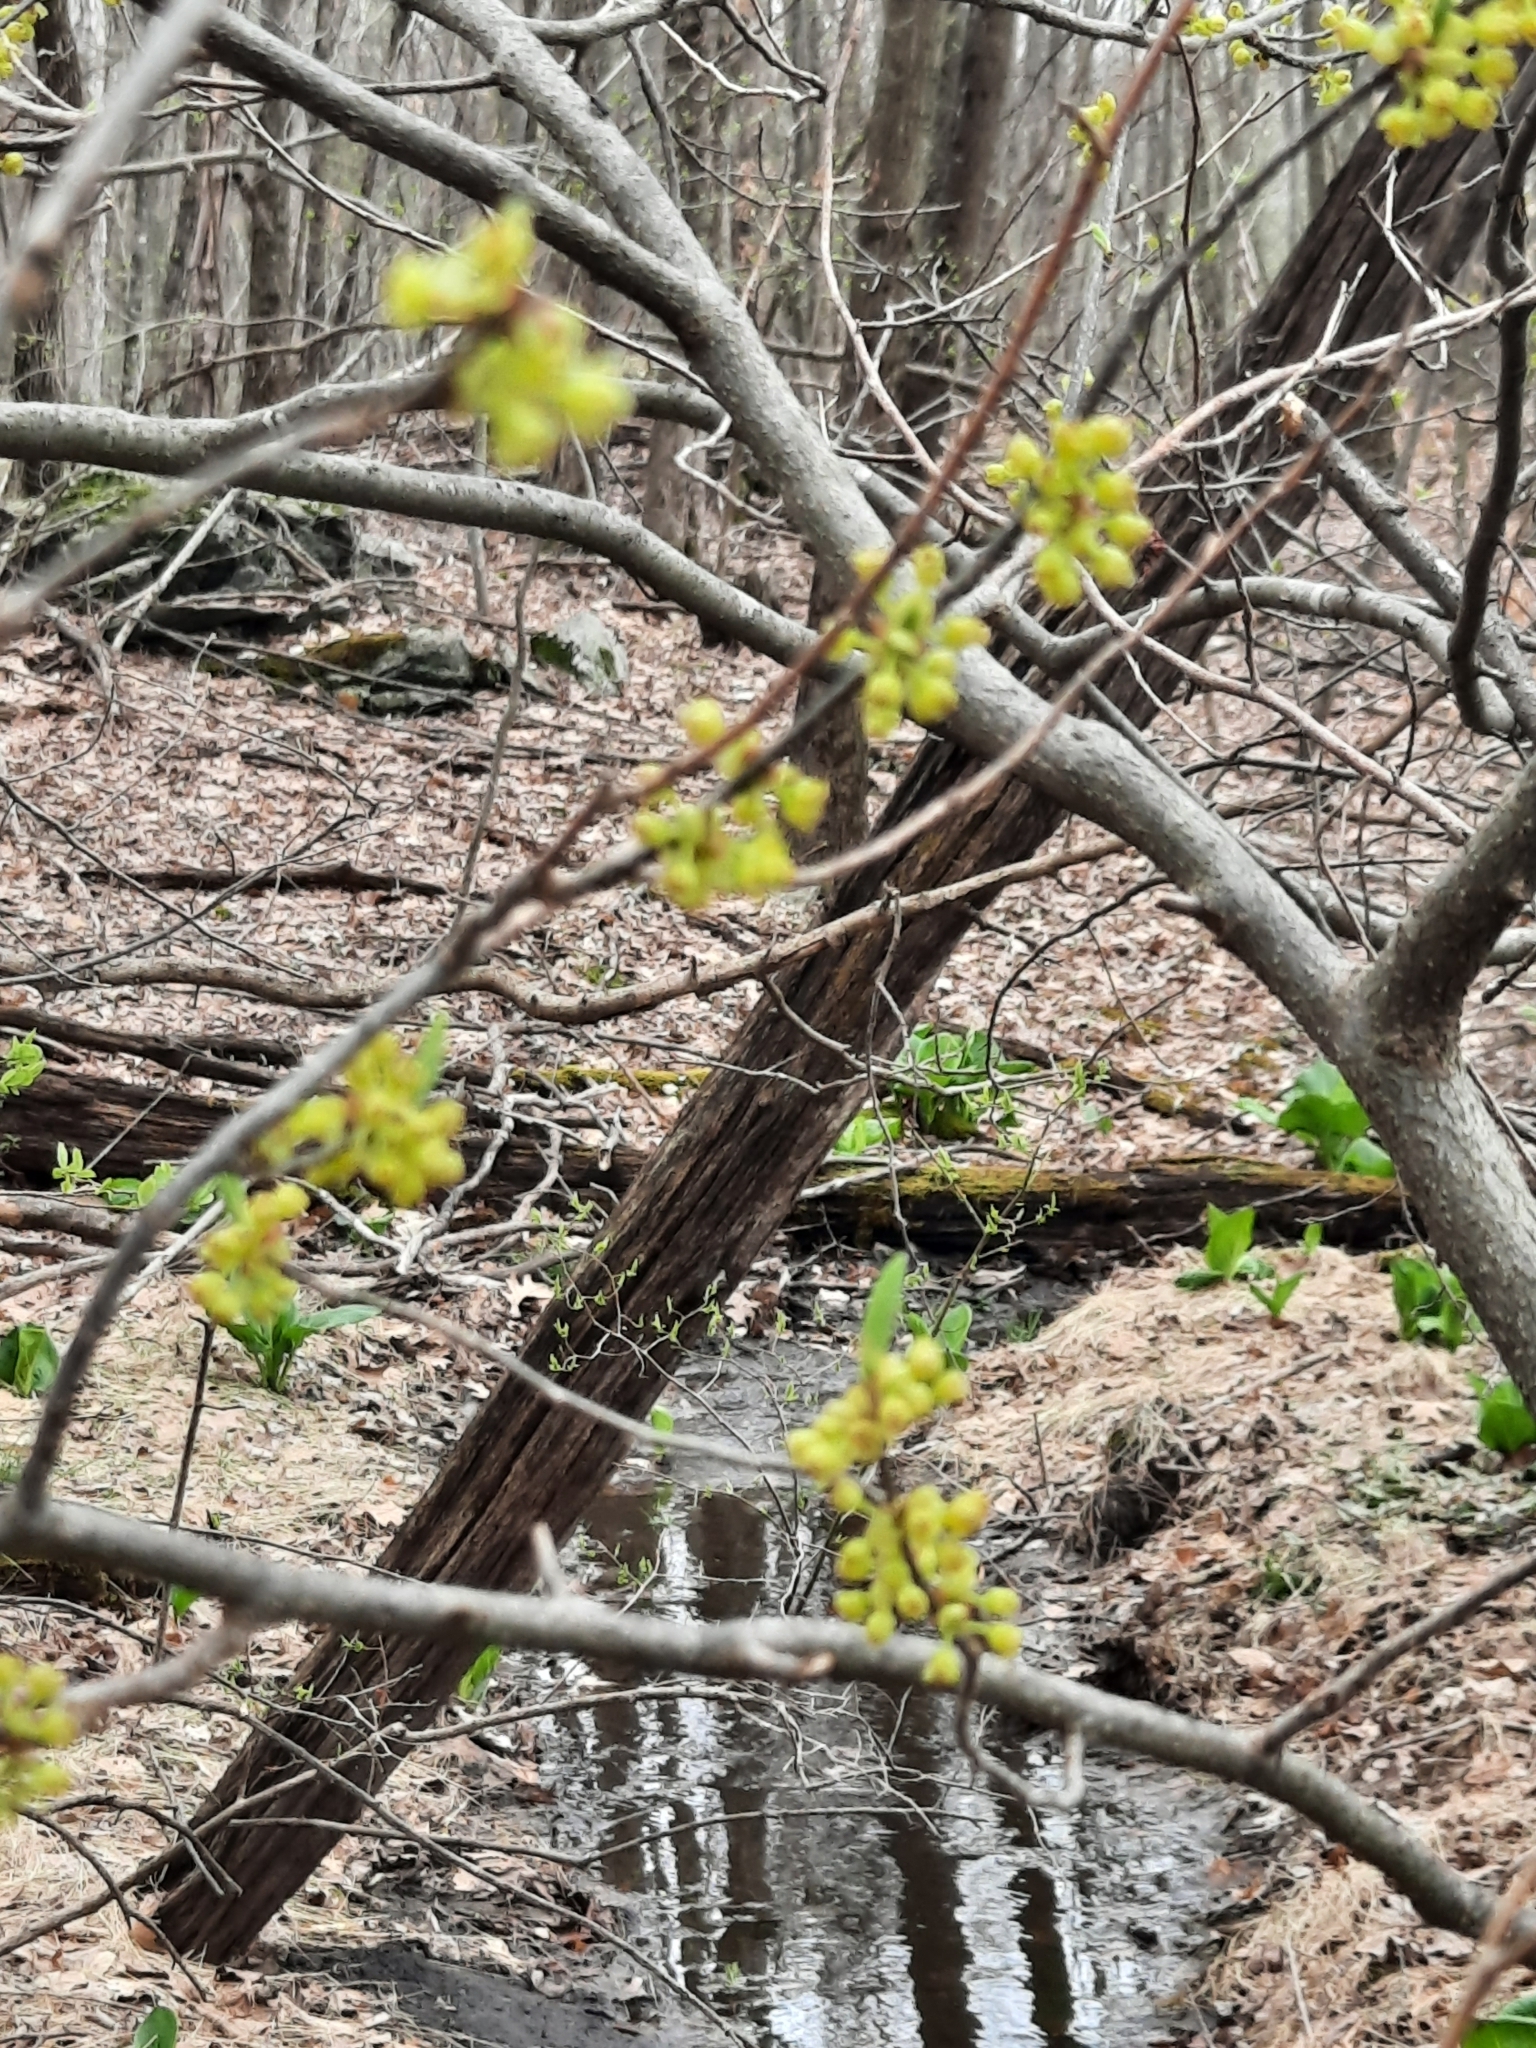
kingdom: Plantae
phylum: Tracheophyta
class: Magnoliopsida
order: Laurales
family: Lauraceae
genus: Lindera
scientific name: Lindera benzoin
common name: Spicebush
